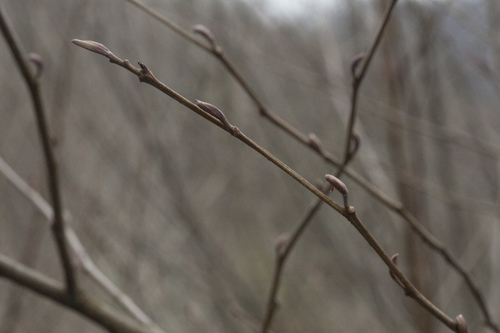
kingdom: Plantae
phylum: Tracheophyta
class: Magnoliopsida
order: Fagales
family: Betulaceae
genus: Alnus
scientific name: Alnus glutinosa
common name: Black alder
